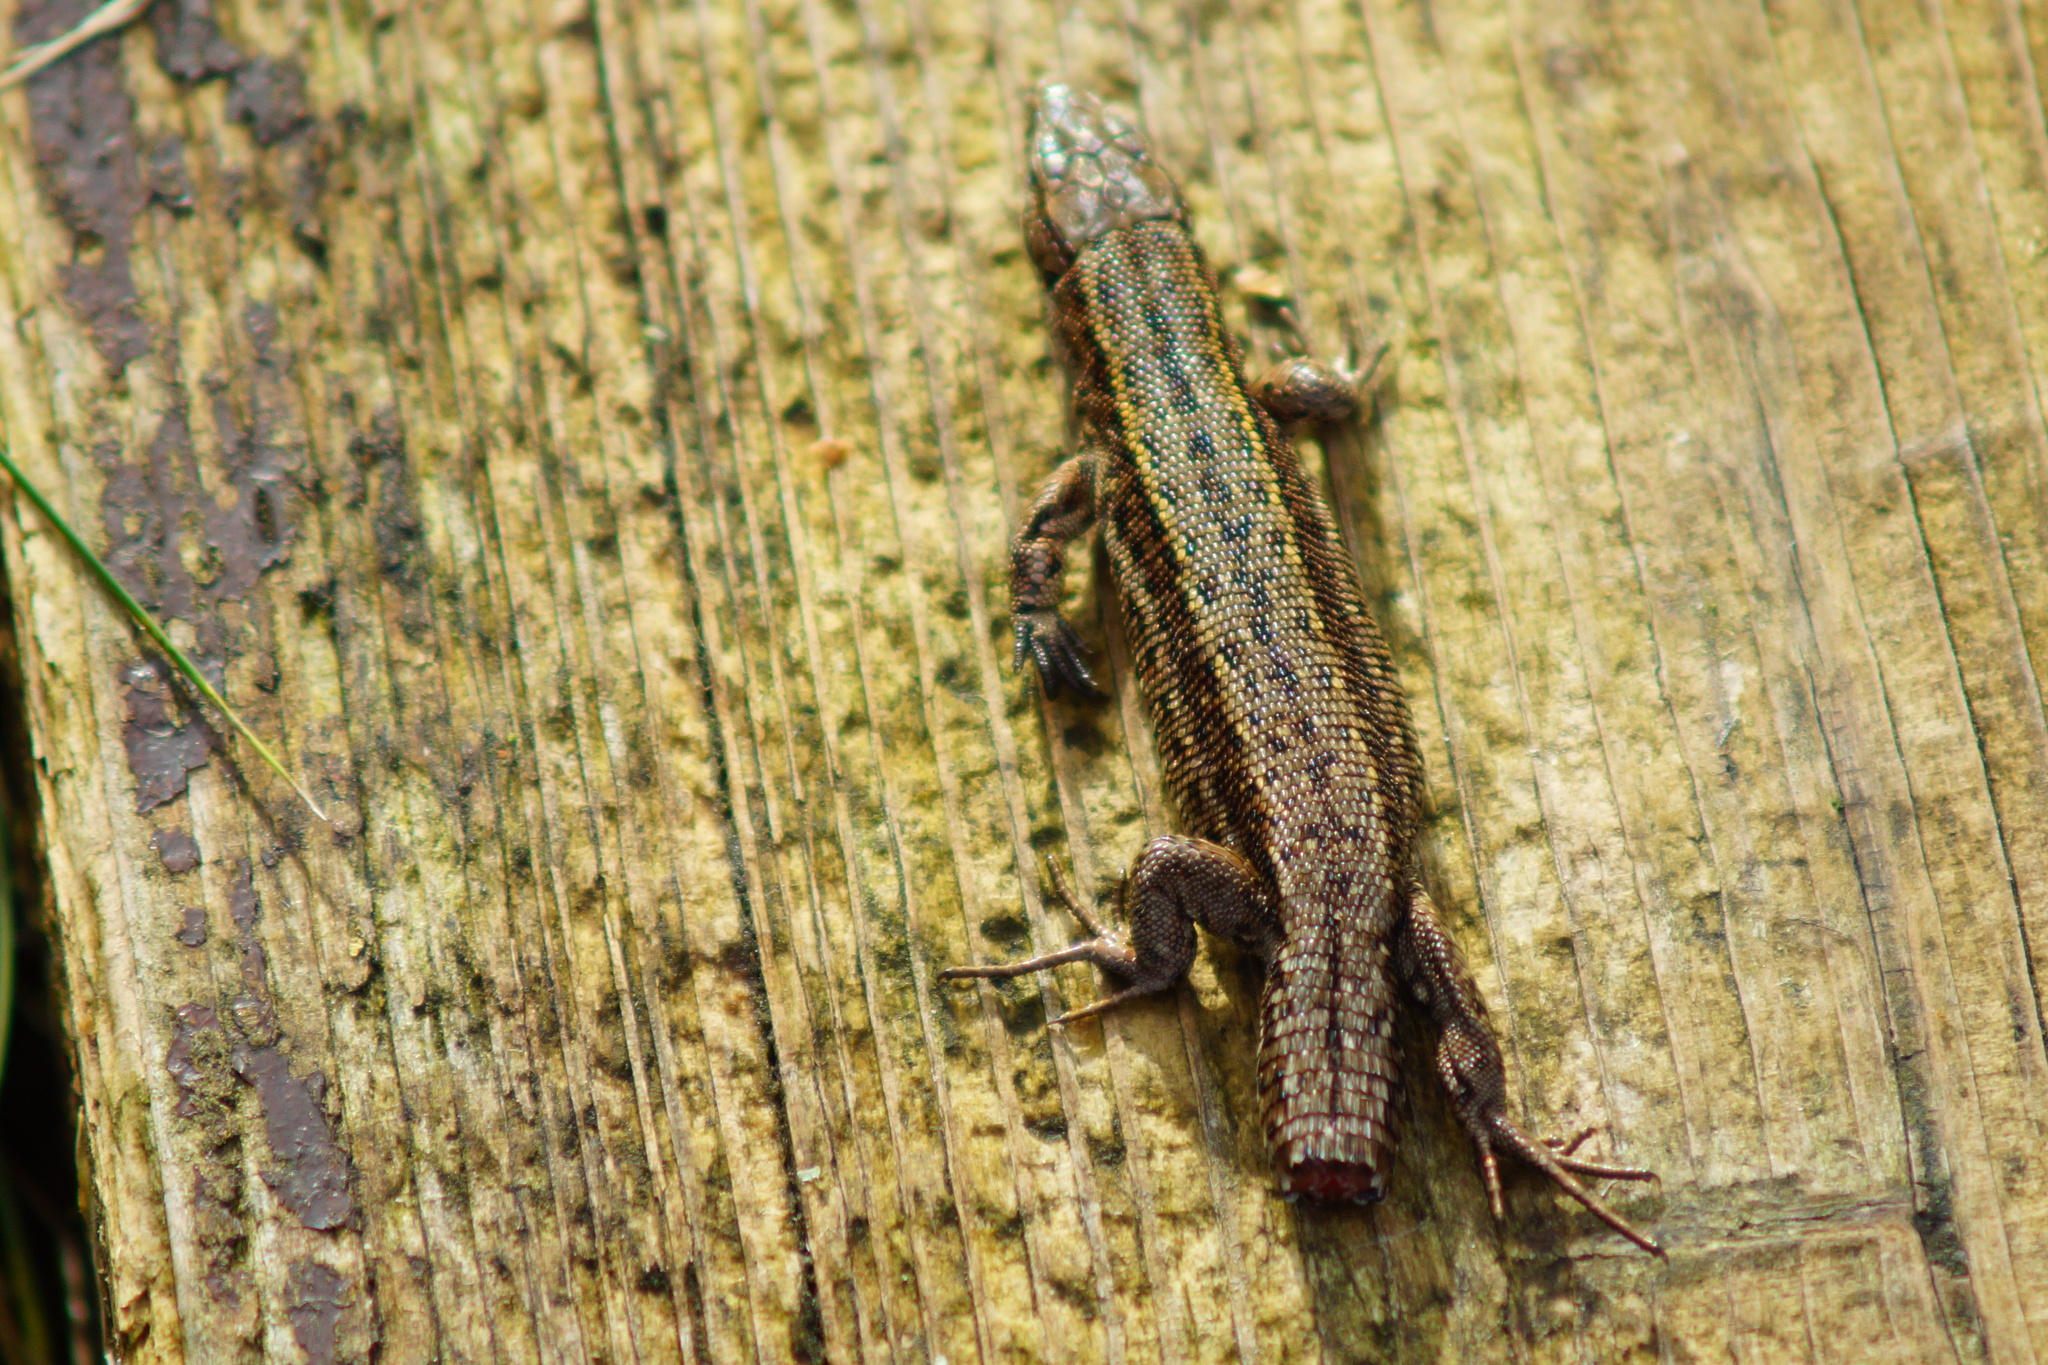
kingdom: Animalia
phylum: Chordata
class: Squamata
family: Lacertidae
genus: Zootoca
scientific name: Zootoca vivipara
